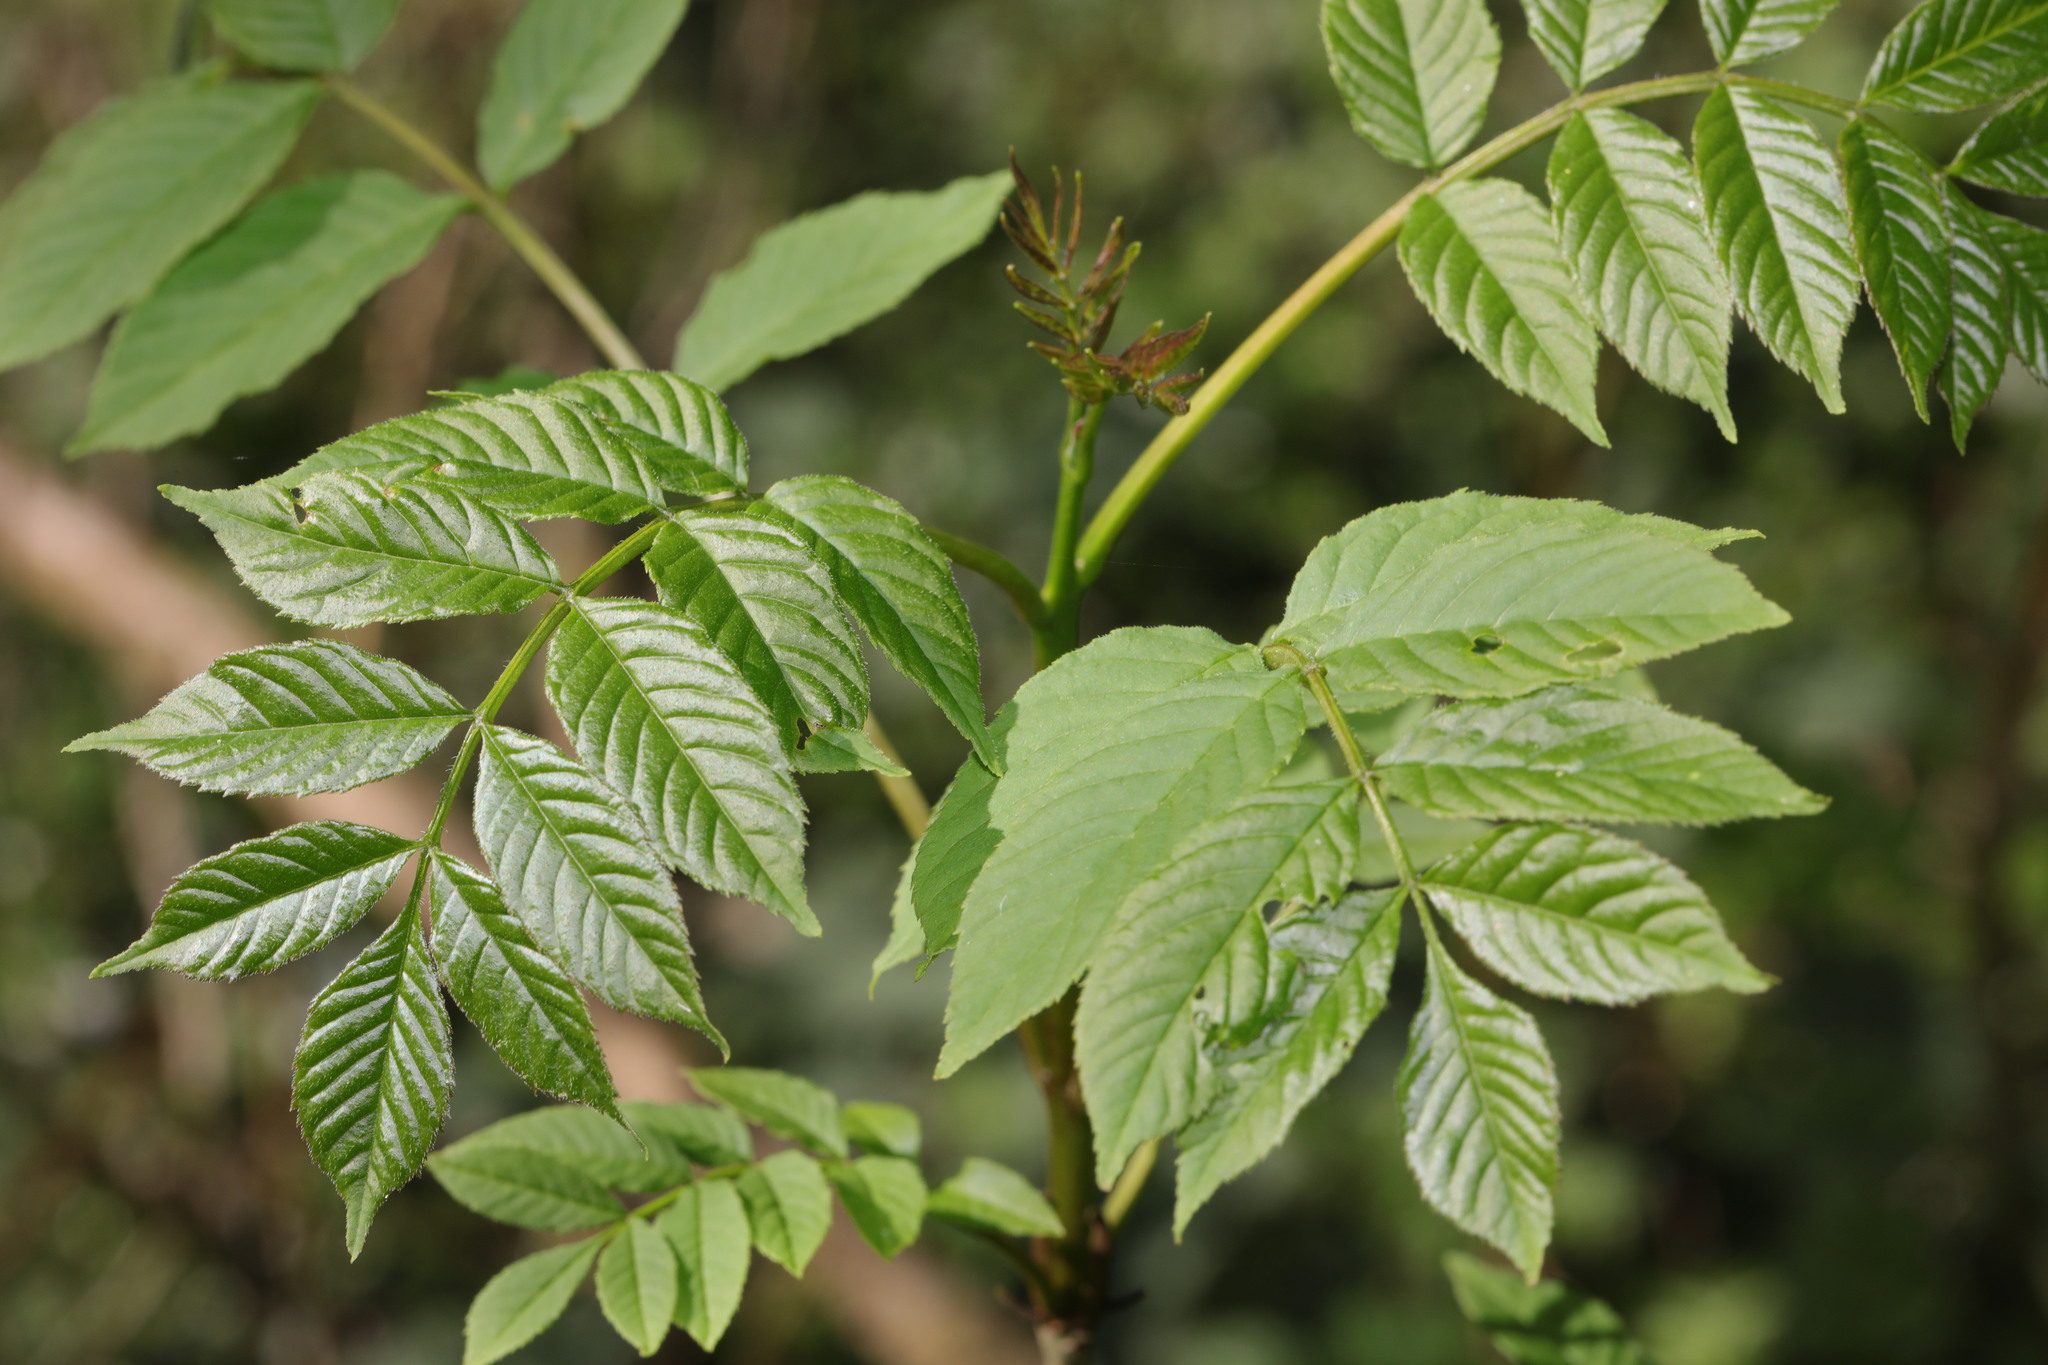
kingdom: Plantae
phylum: Tracheophyta
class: Magnoliopsida
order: Lamiales
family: Oleaceae
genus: Fraxinus
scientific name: Fraxinus excelsior
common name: European ash
